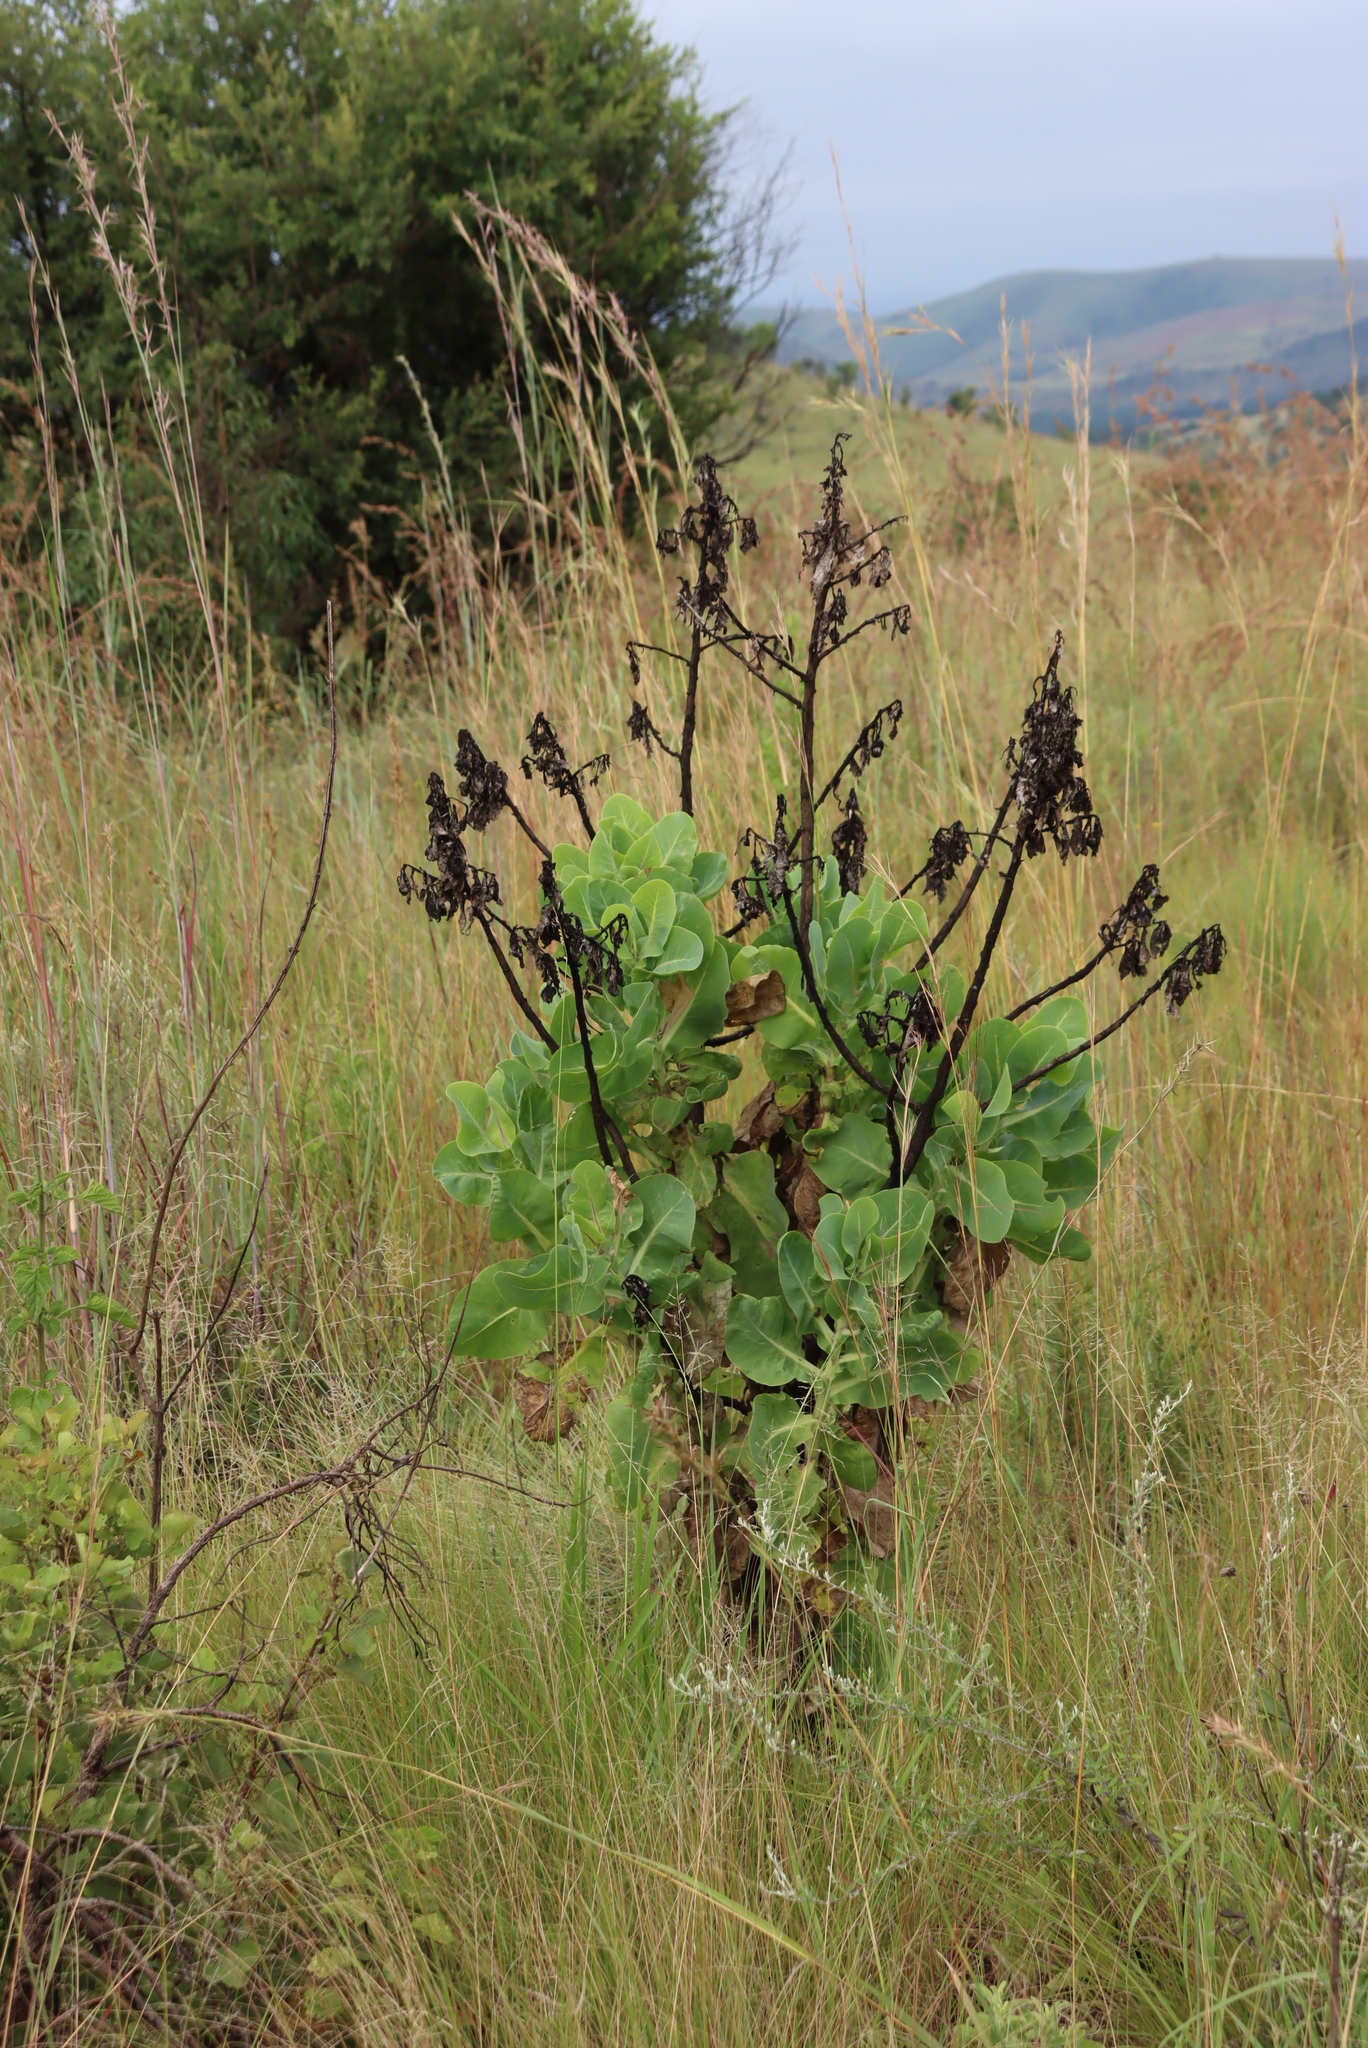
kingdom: Plantae
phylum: Tracheophyta
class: Magnoliopsida
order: Asterales
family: Asteraceae
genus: Lopholaena
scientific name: Lopholaena platyphylla
